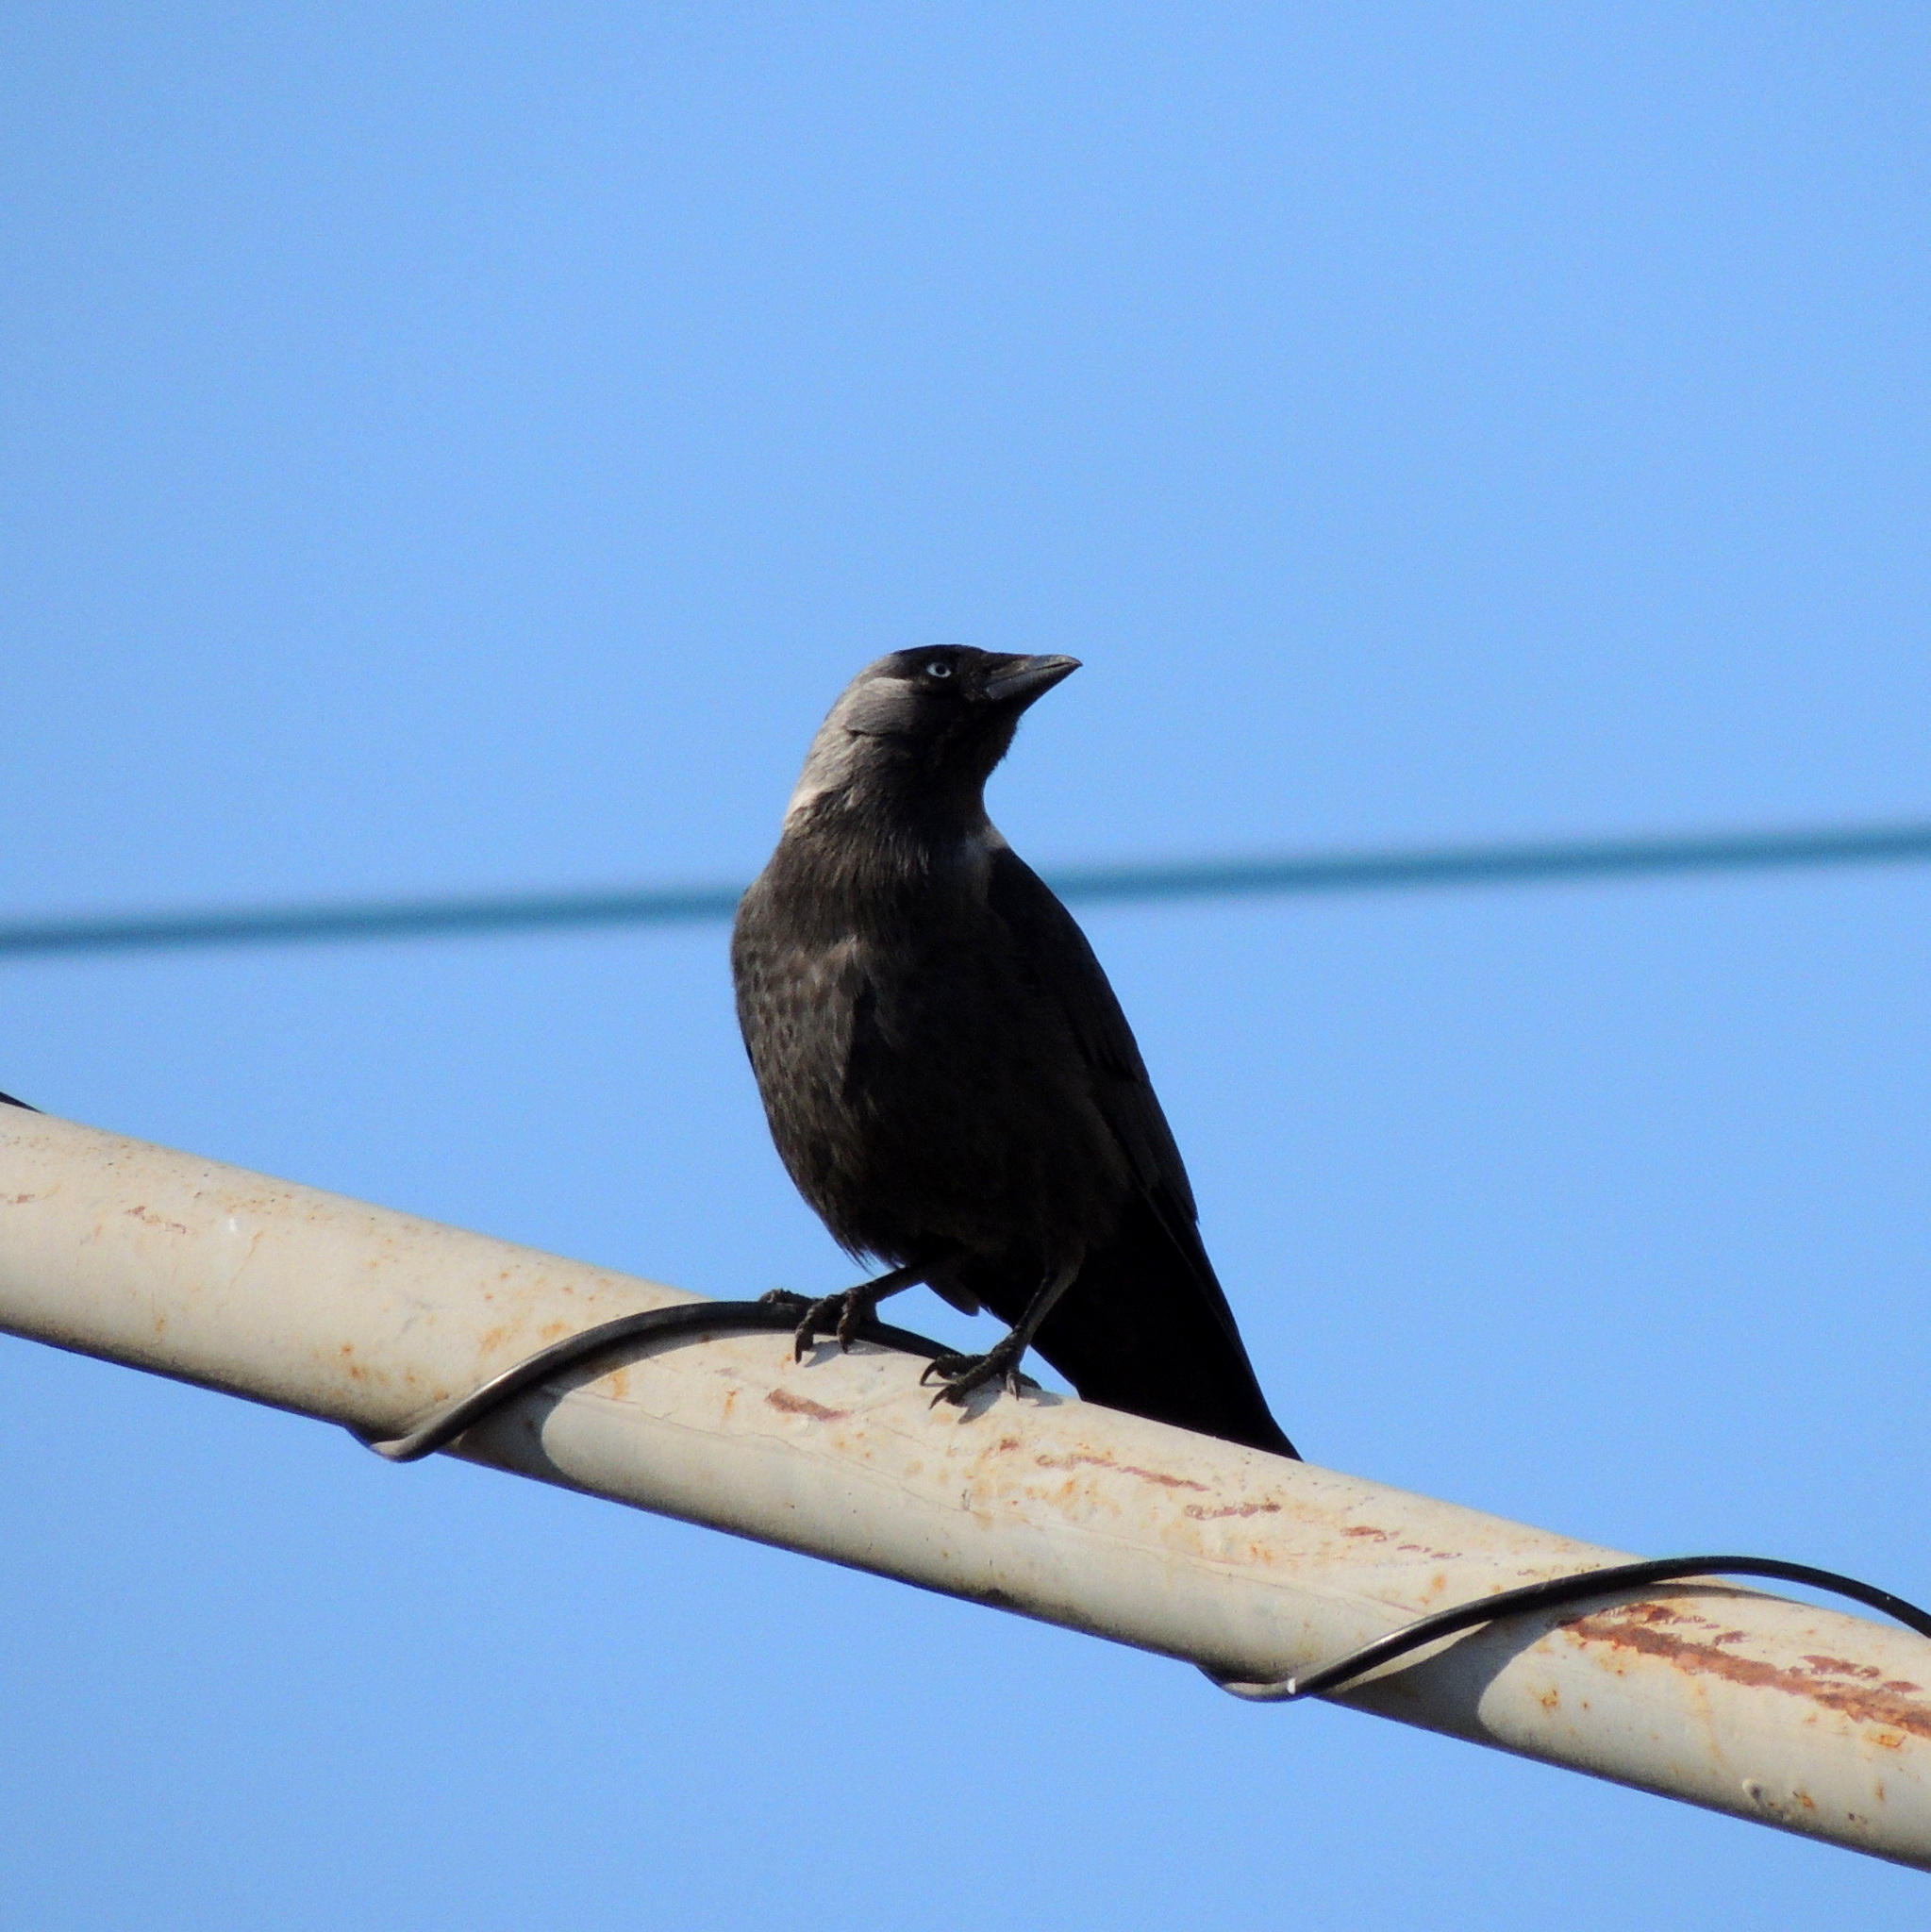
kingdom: Animalia
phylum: Chordata
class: Aves
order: Passeriformes
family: Corvidae
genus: Coloeus
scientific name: Coloeus monedula
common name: Western jackdaw
